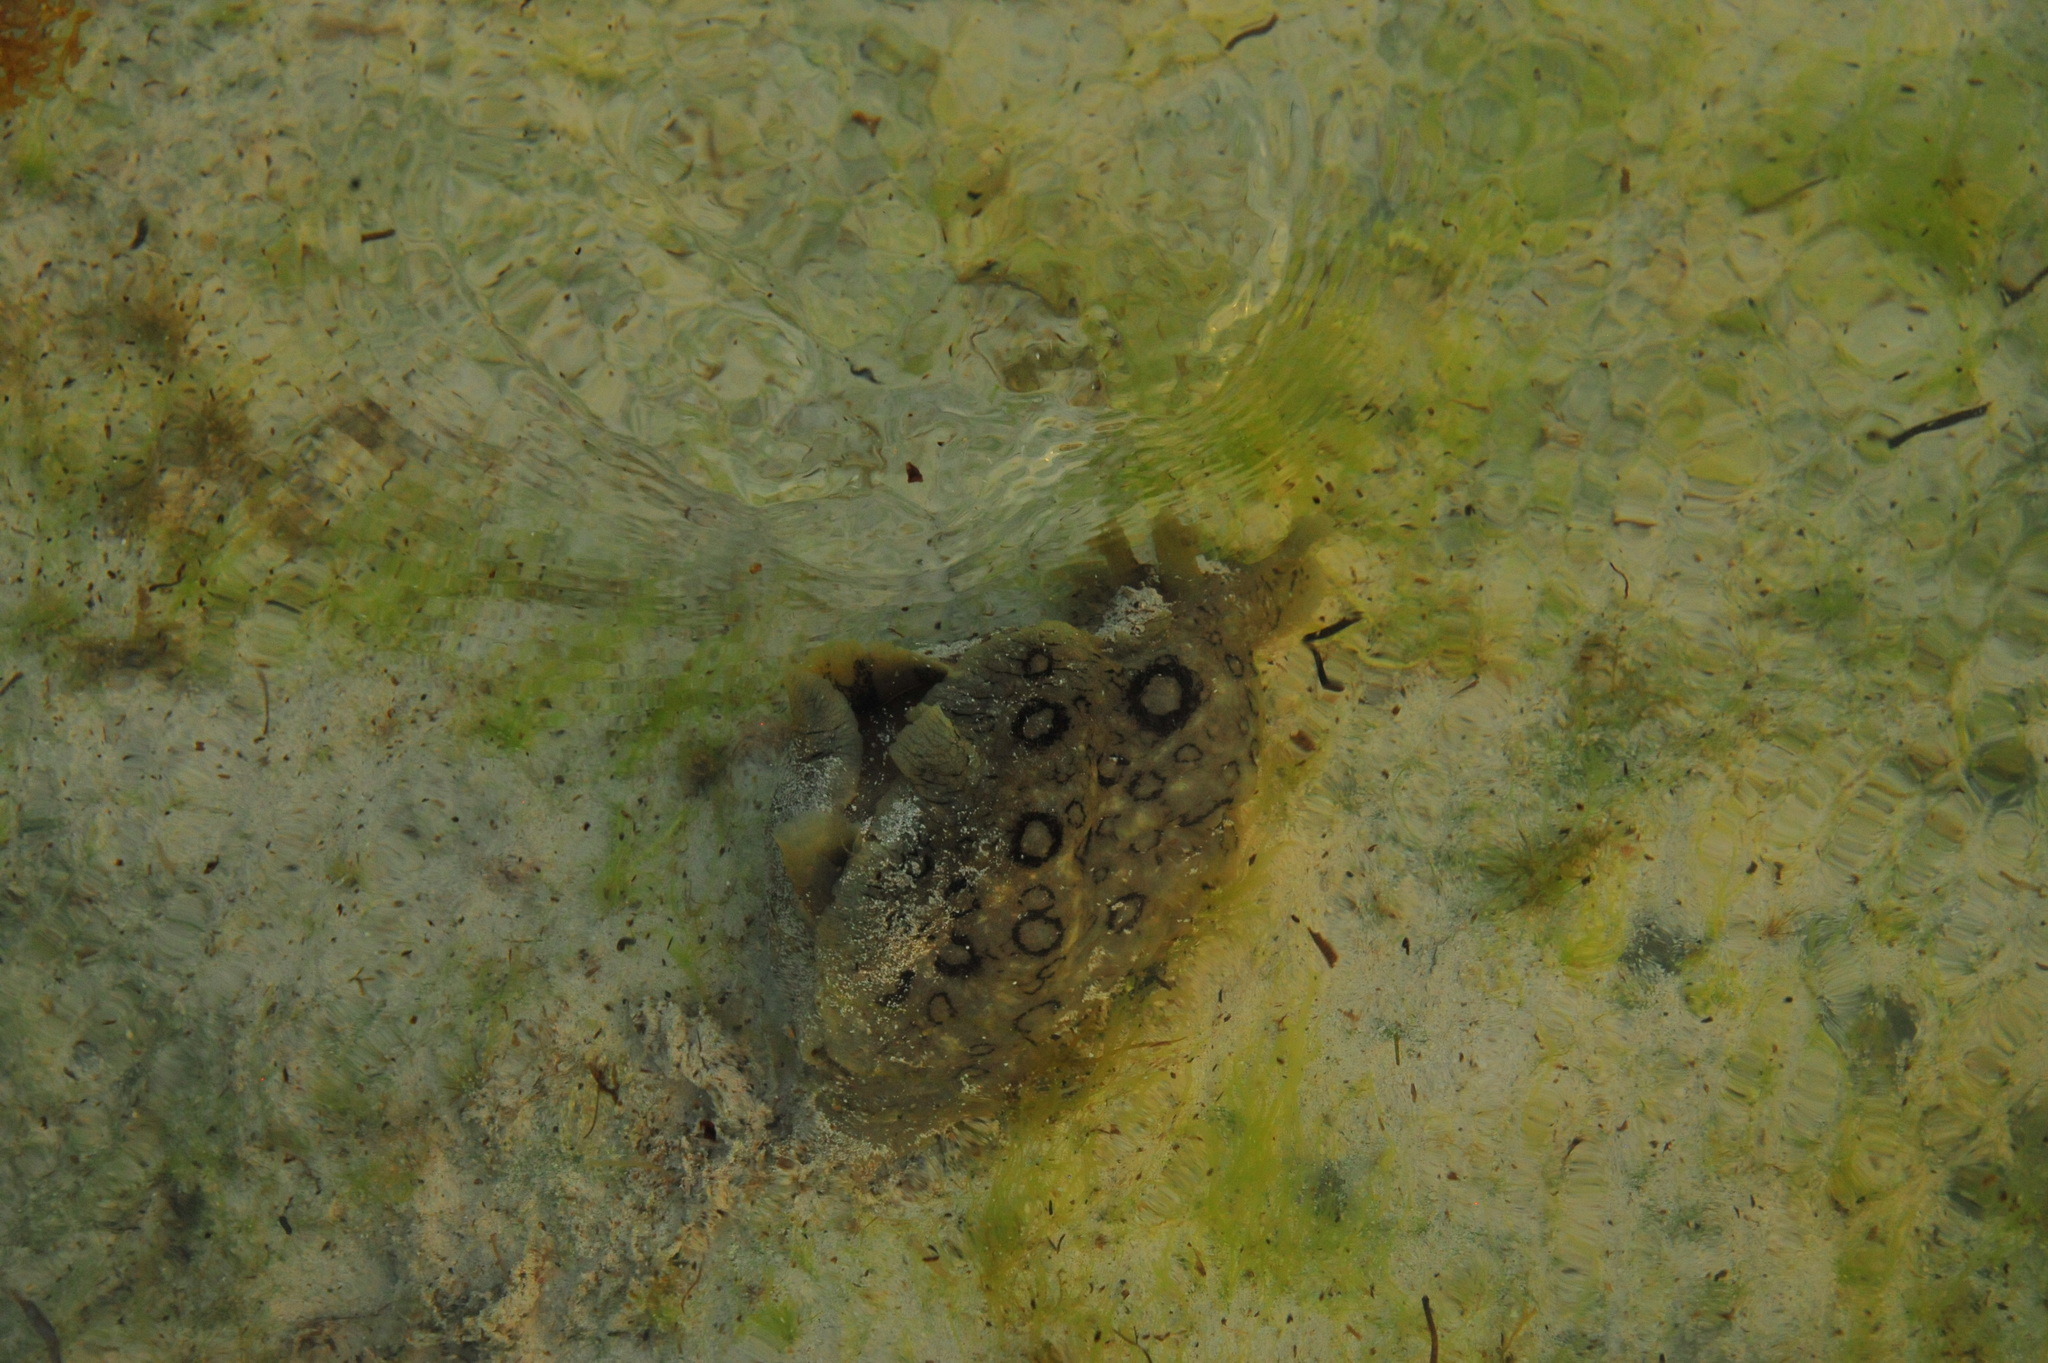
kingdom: Animalia
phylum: Mollusca
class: Gastropoda
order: Aplysiida
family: Aplysiidae
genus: Aplysia
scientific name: Aplysia dactylomela
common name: Large-spotted sea hare
